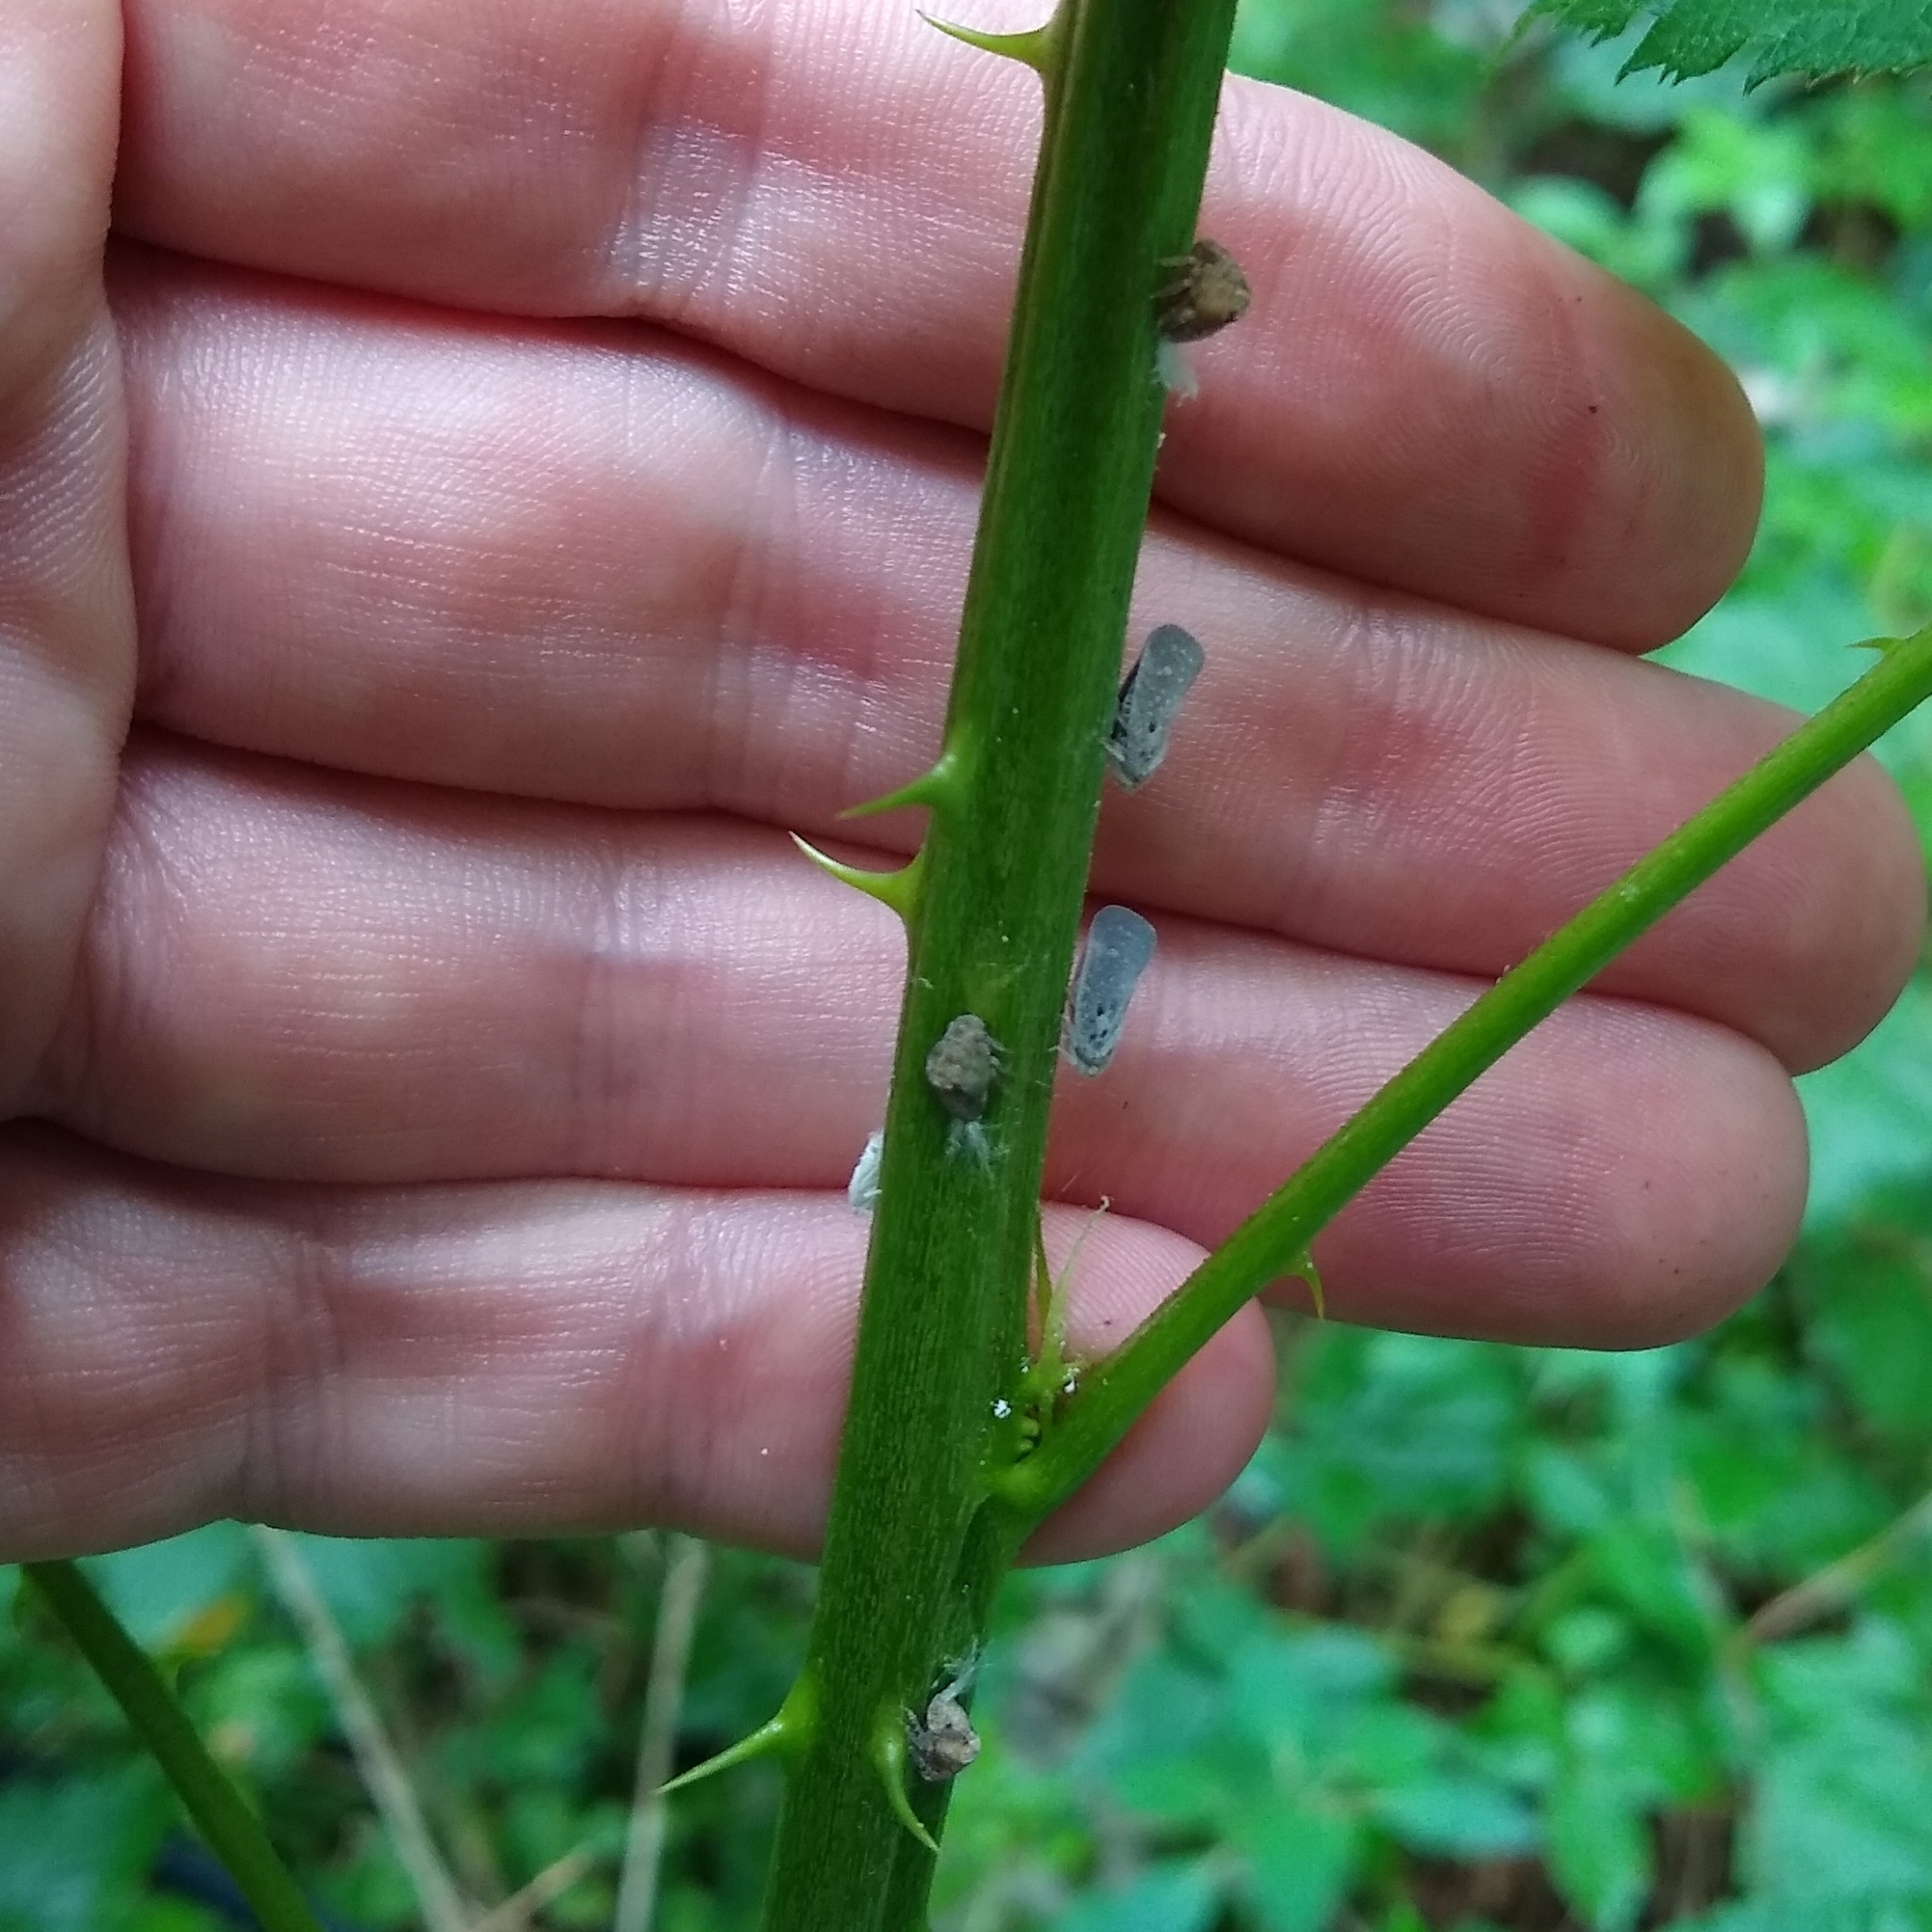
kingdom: Animalia
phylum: Arthropoda
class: Insecta
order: Hemiptera
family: Flatidae
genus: Metcalfa
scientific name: Metcalfa pruinosa
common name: Citrus flatid planthopper
